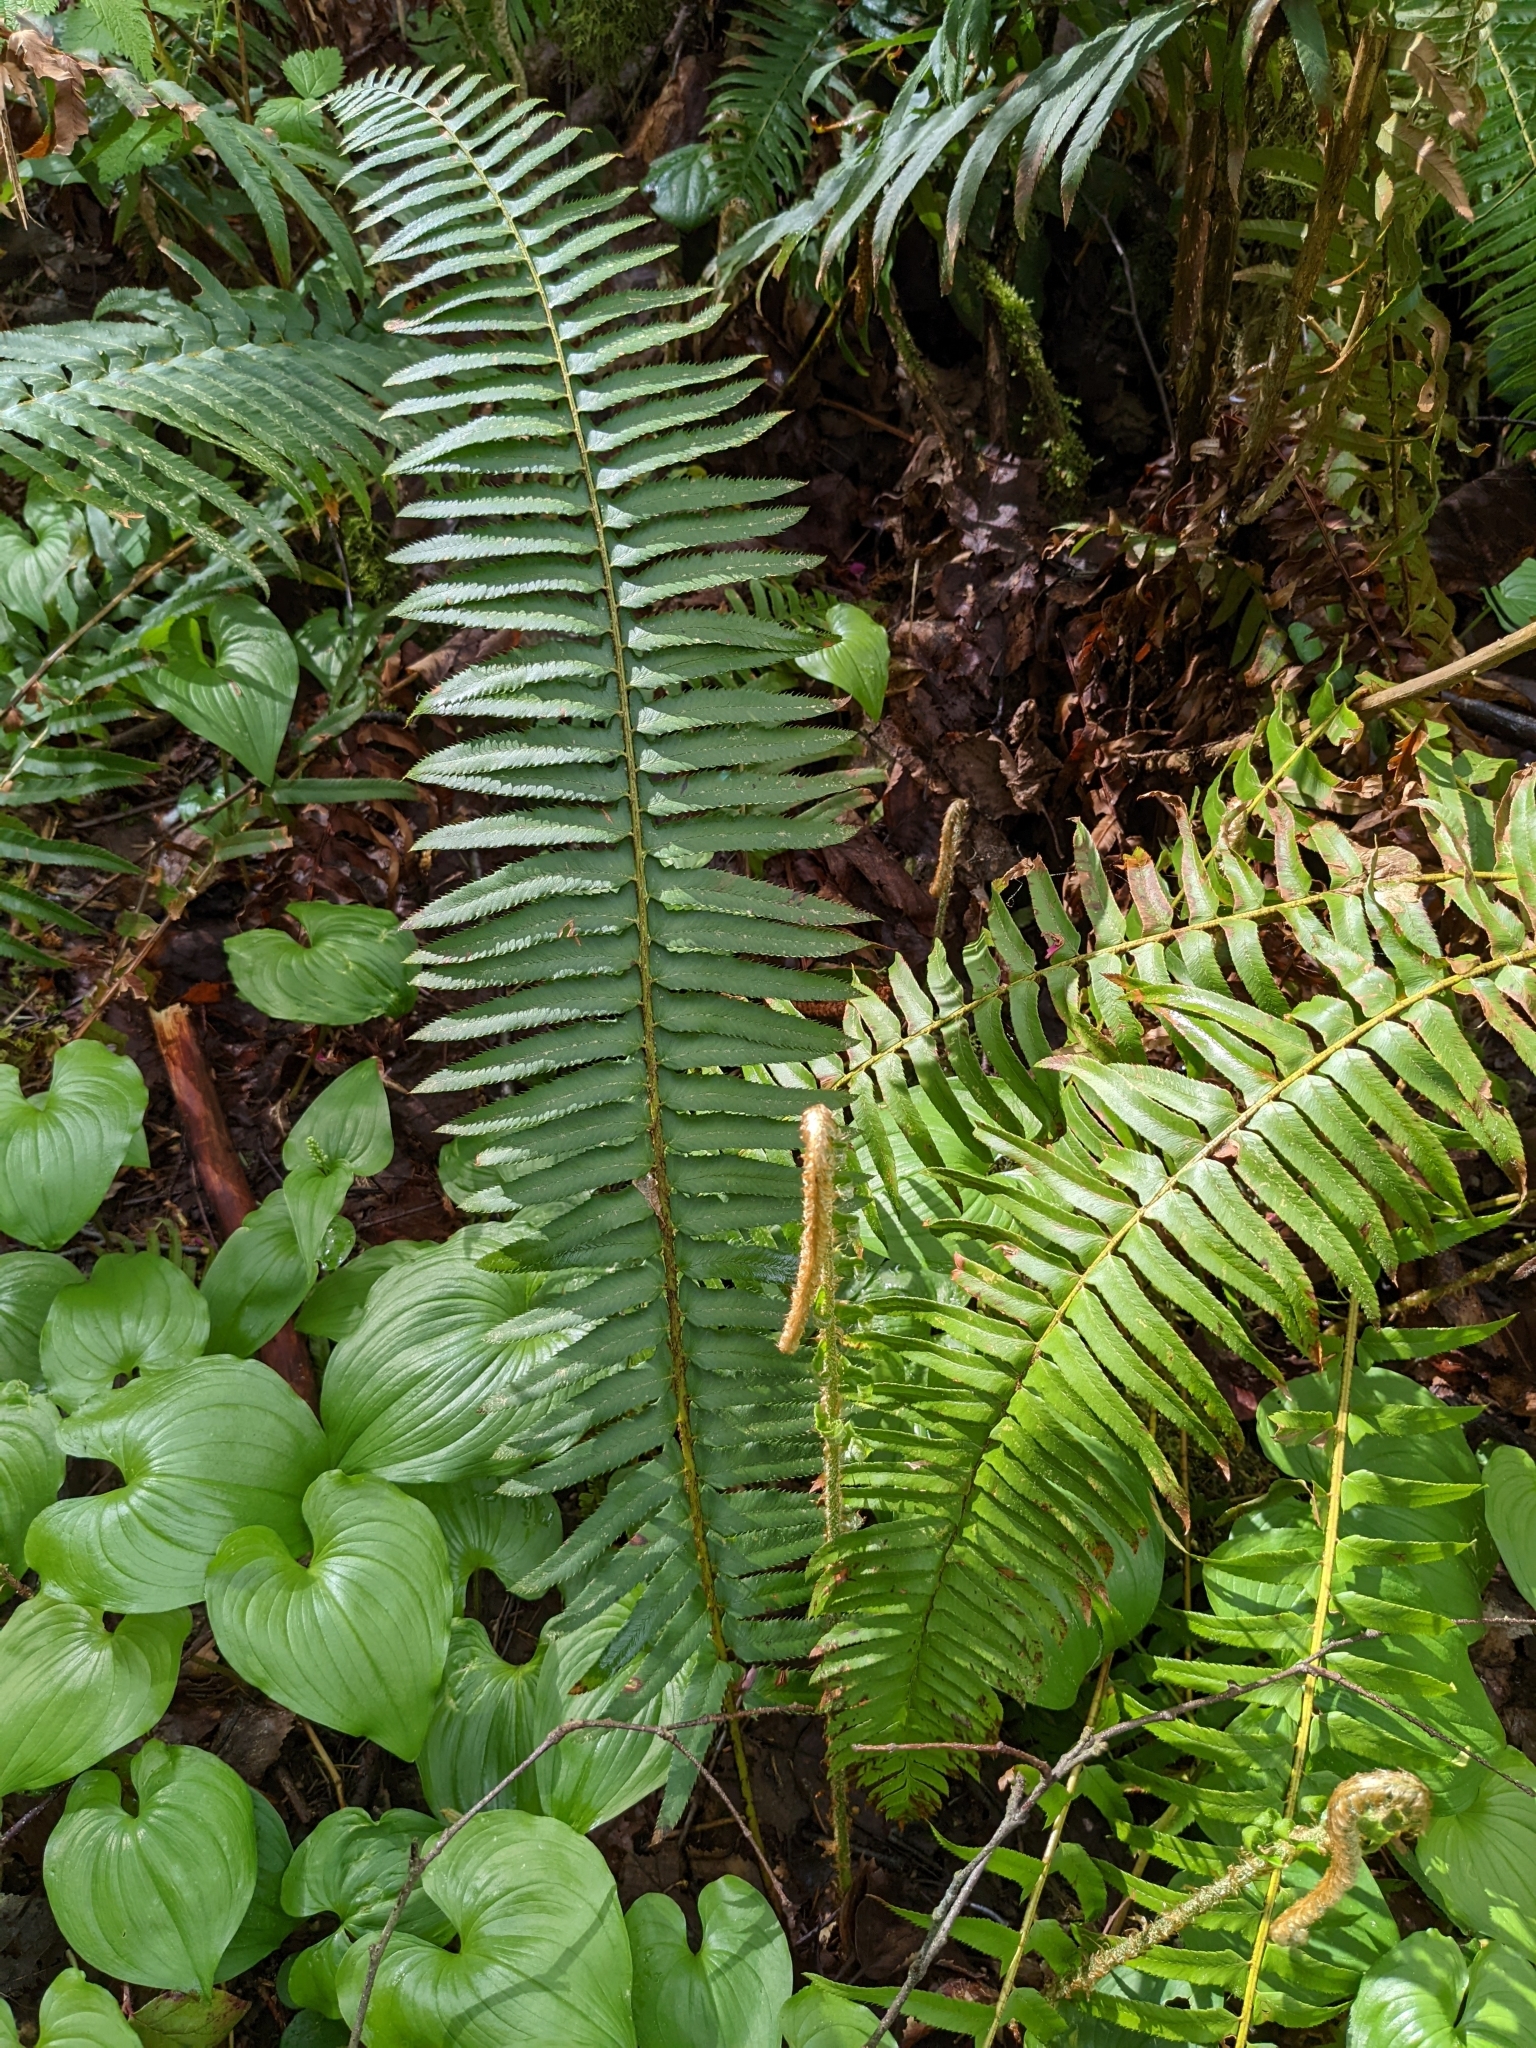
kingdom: Plantae
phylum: Tracheophyta
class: Polypodiopsida
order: Polypodiales
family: Dryopteridaceae
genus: Polystichum
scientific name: Polystichum munitum
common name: Western sword-fern
